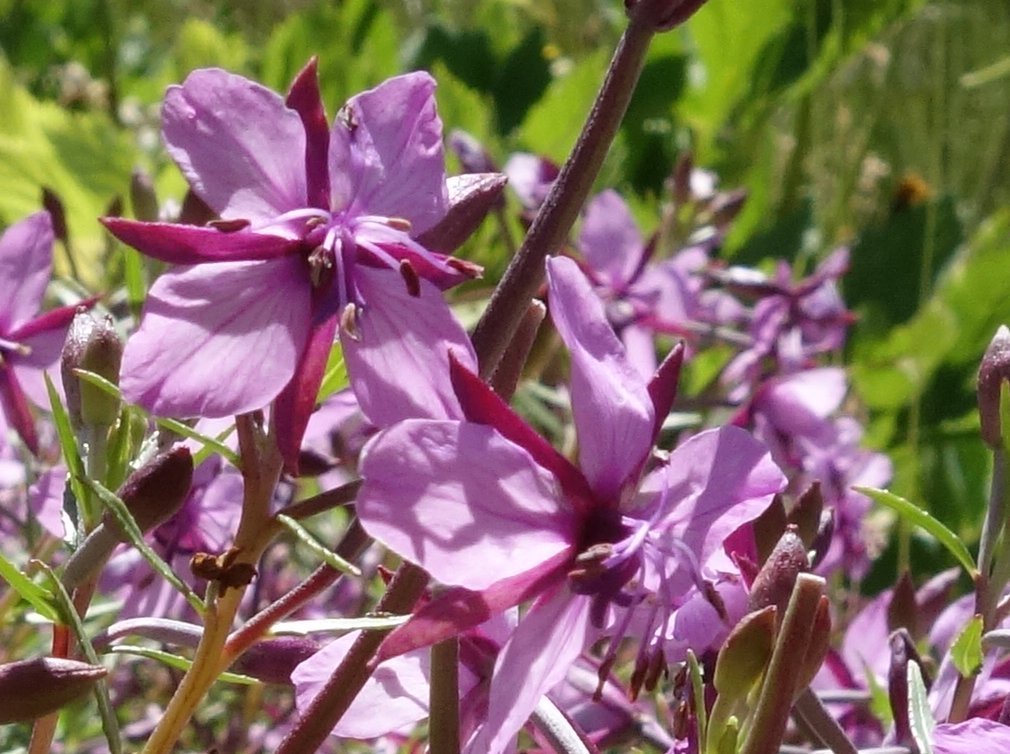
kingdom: Plantae
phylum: Tracheophyta
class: Magnoliopsida
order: Myrtales
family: Onagraceae
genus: Chamaenerion
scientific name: Chamaenerion fleischeri
